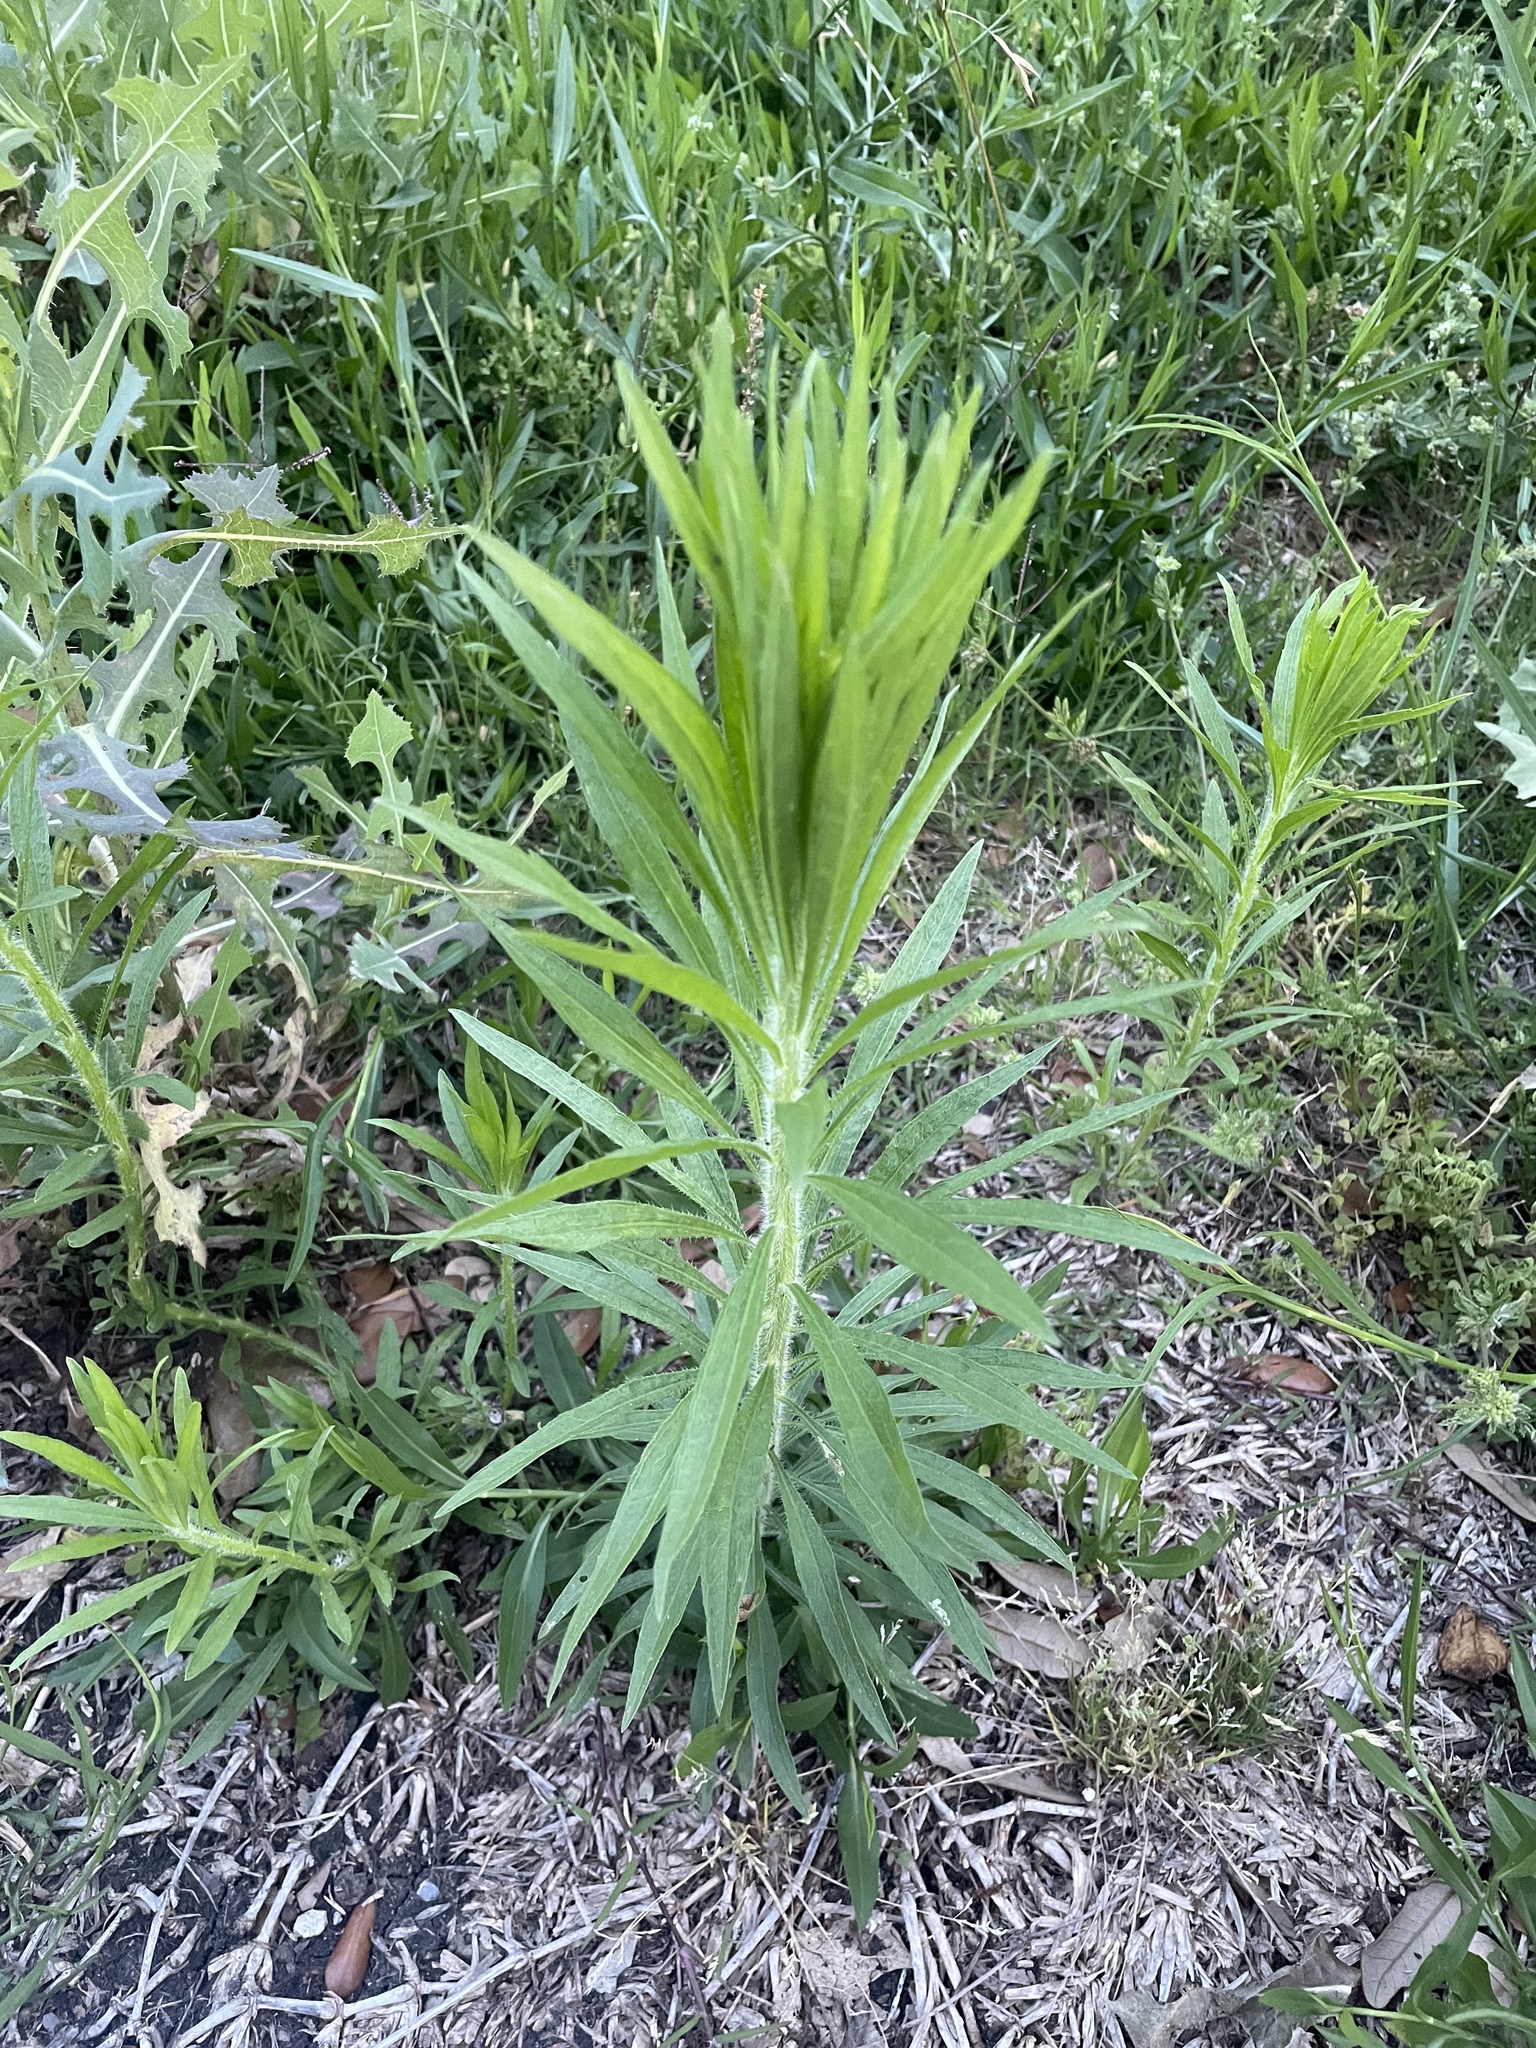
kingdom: Plantae
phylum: Tracheophyta
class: Magnoliopsida
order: Asterales
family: Asteraceae
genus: Erigeron
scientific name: Erigeron canadensis
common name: Canadian fleabane
